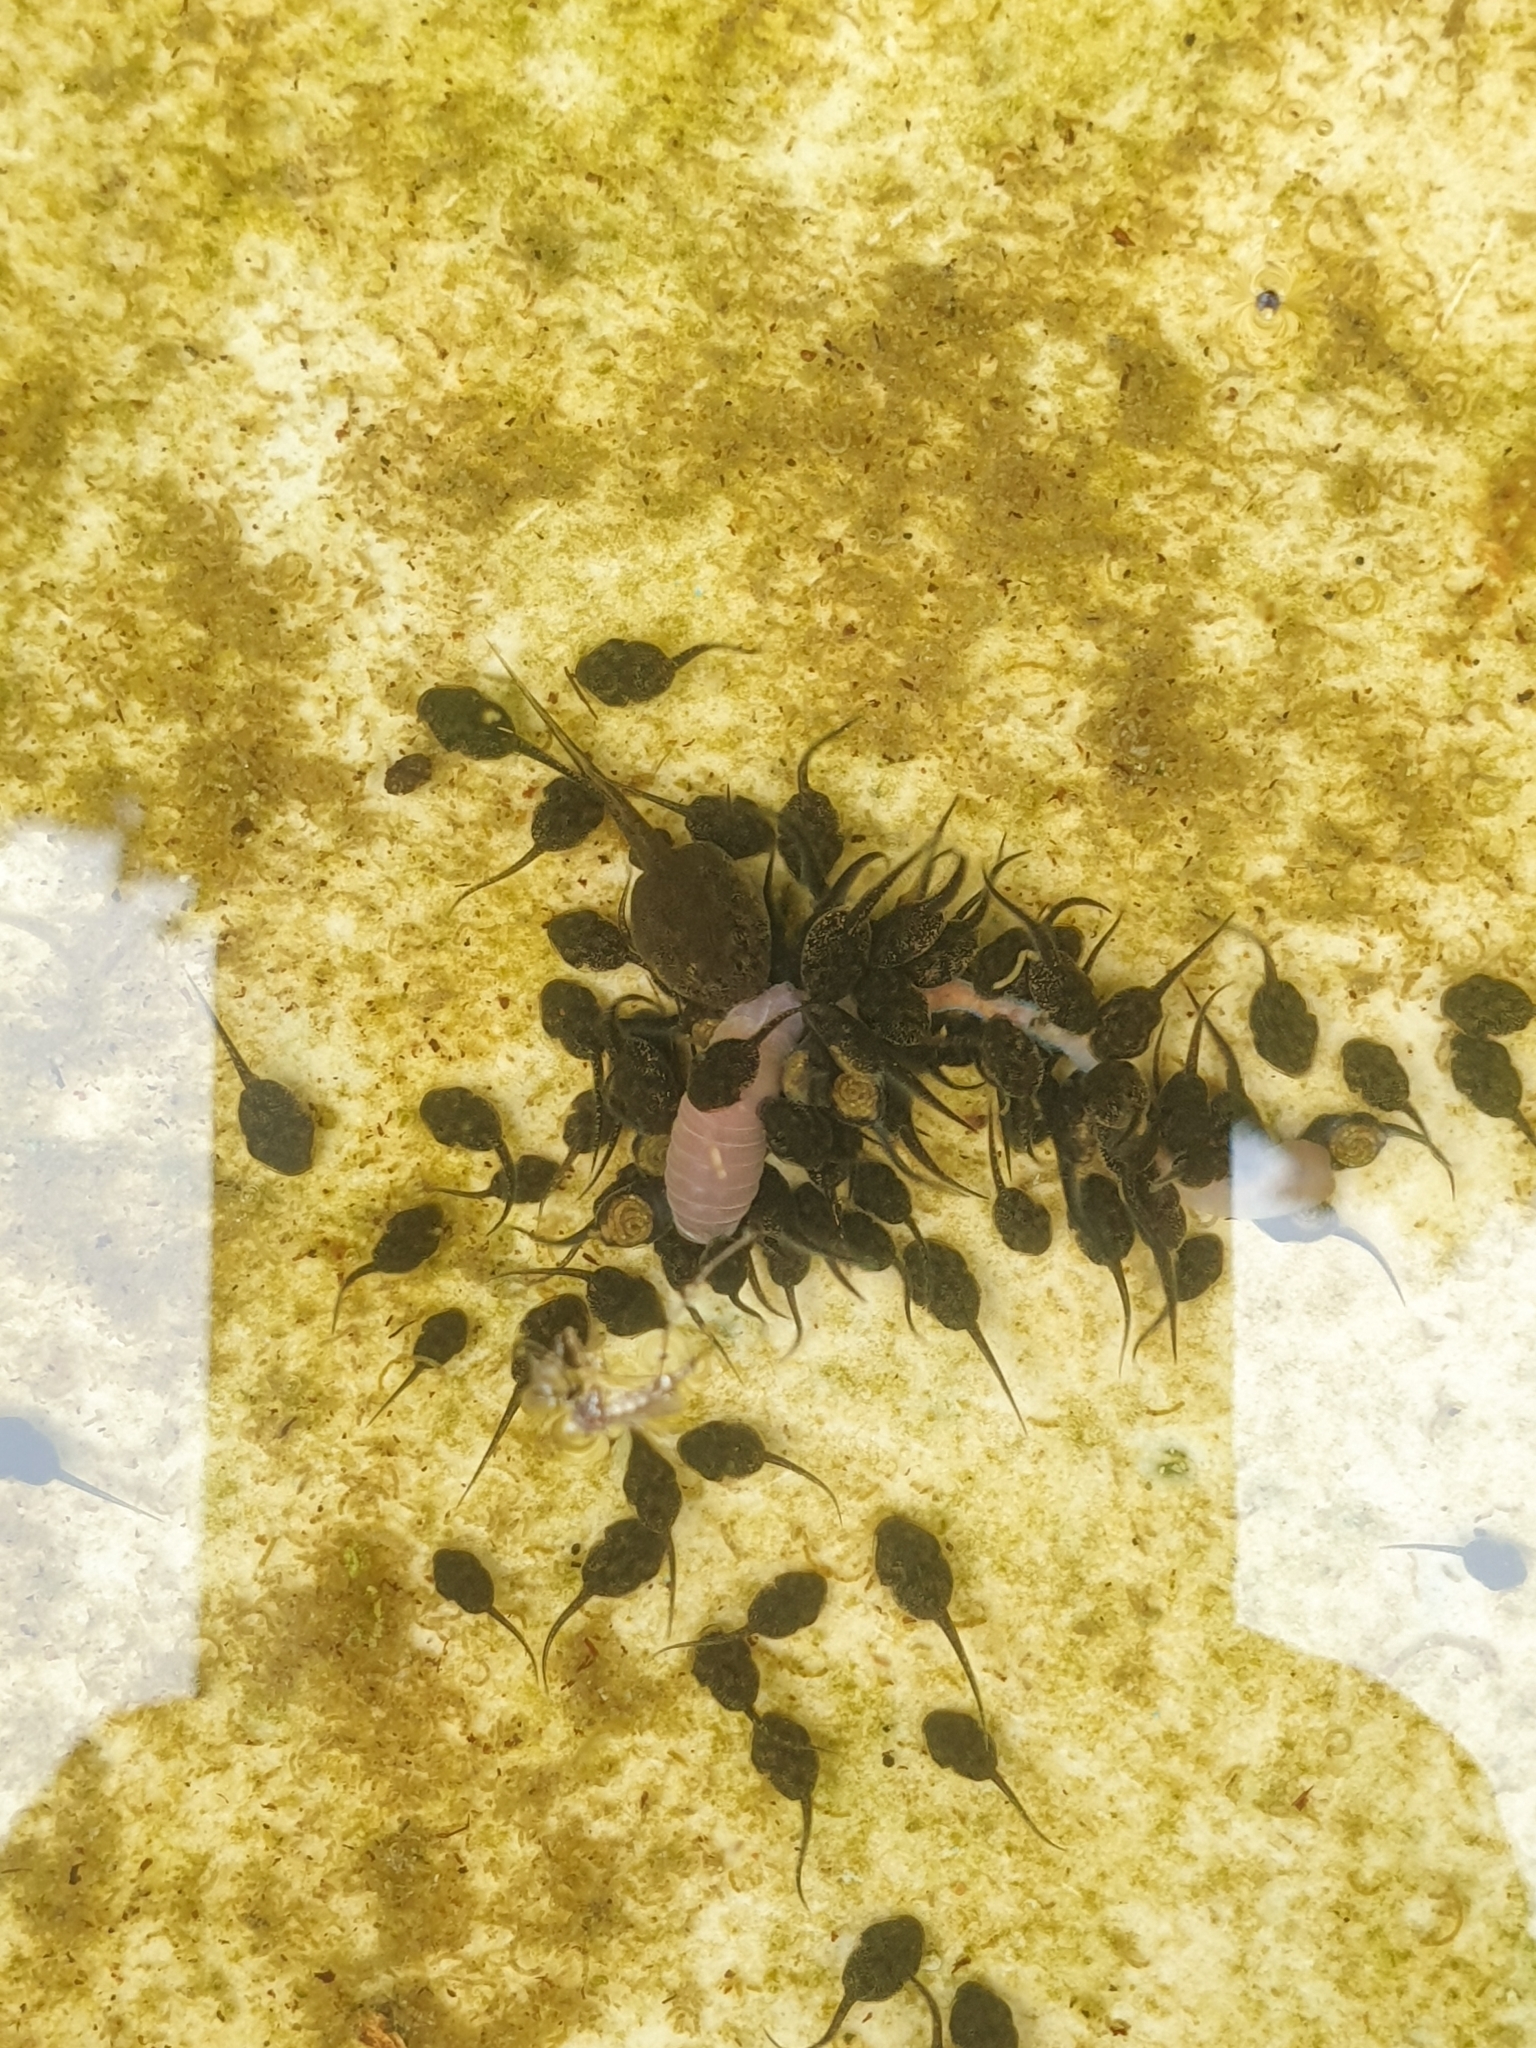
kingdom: Animalia
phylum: Chordata
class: Amphibia
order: Anura
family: Bufonidae
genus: Duttaphrynus
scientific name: Duttaphrynus melanostictus
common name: Common sunda toad
